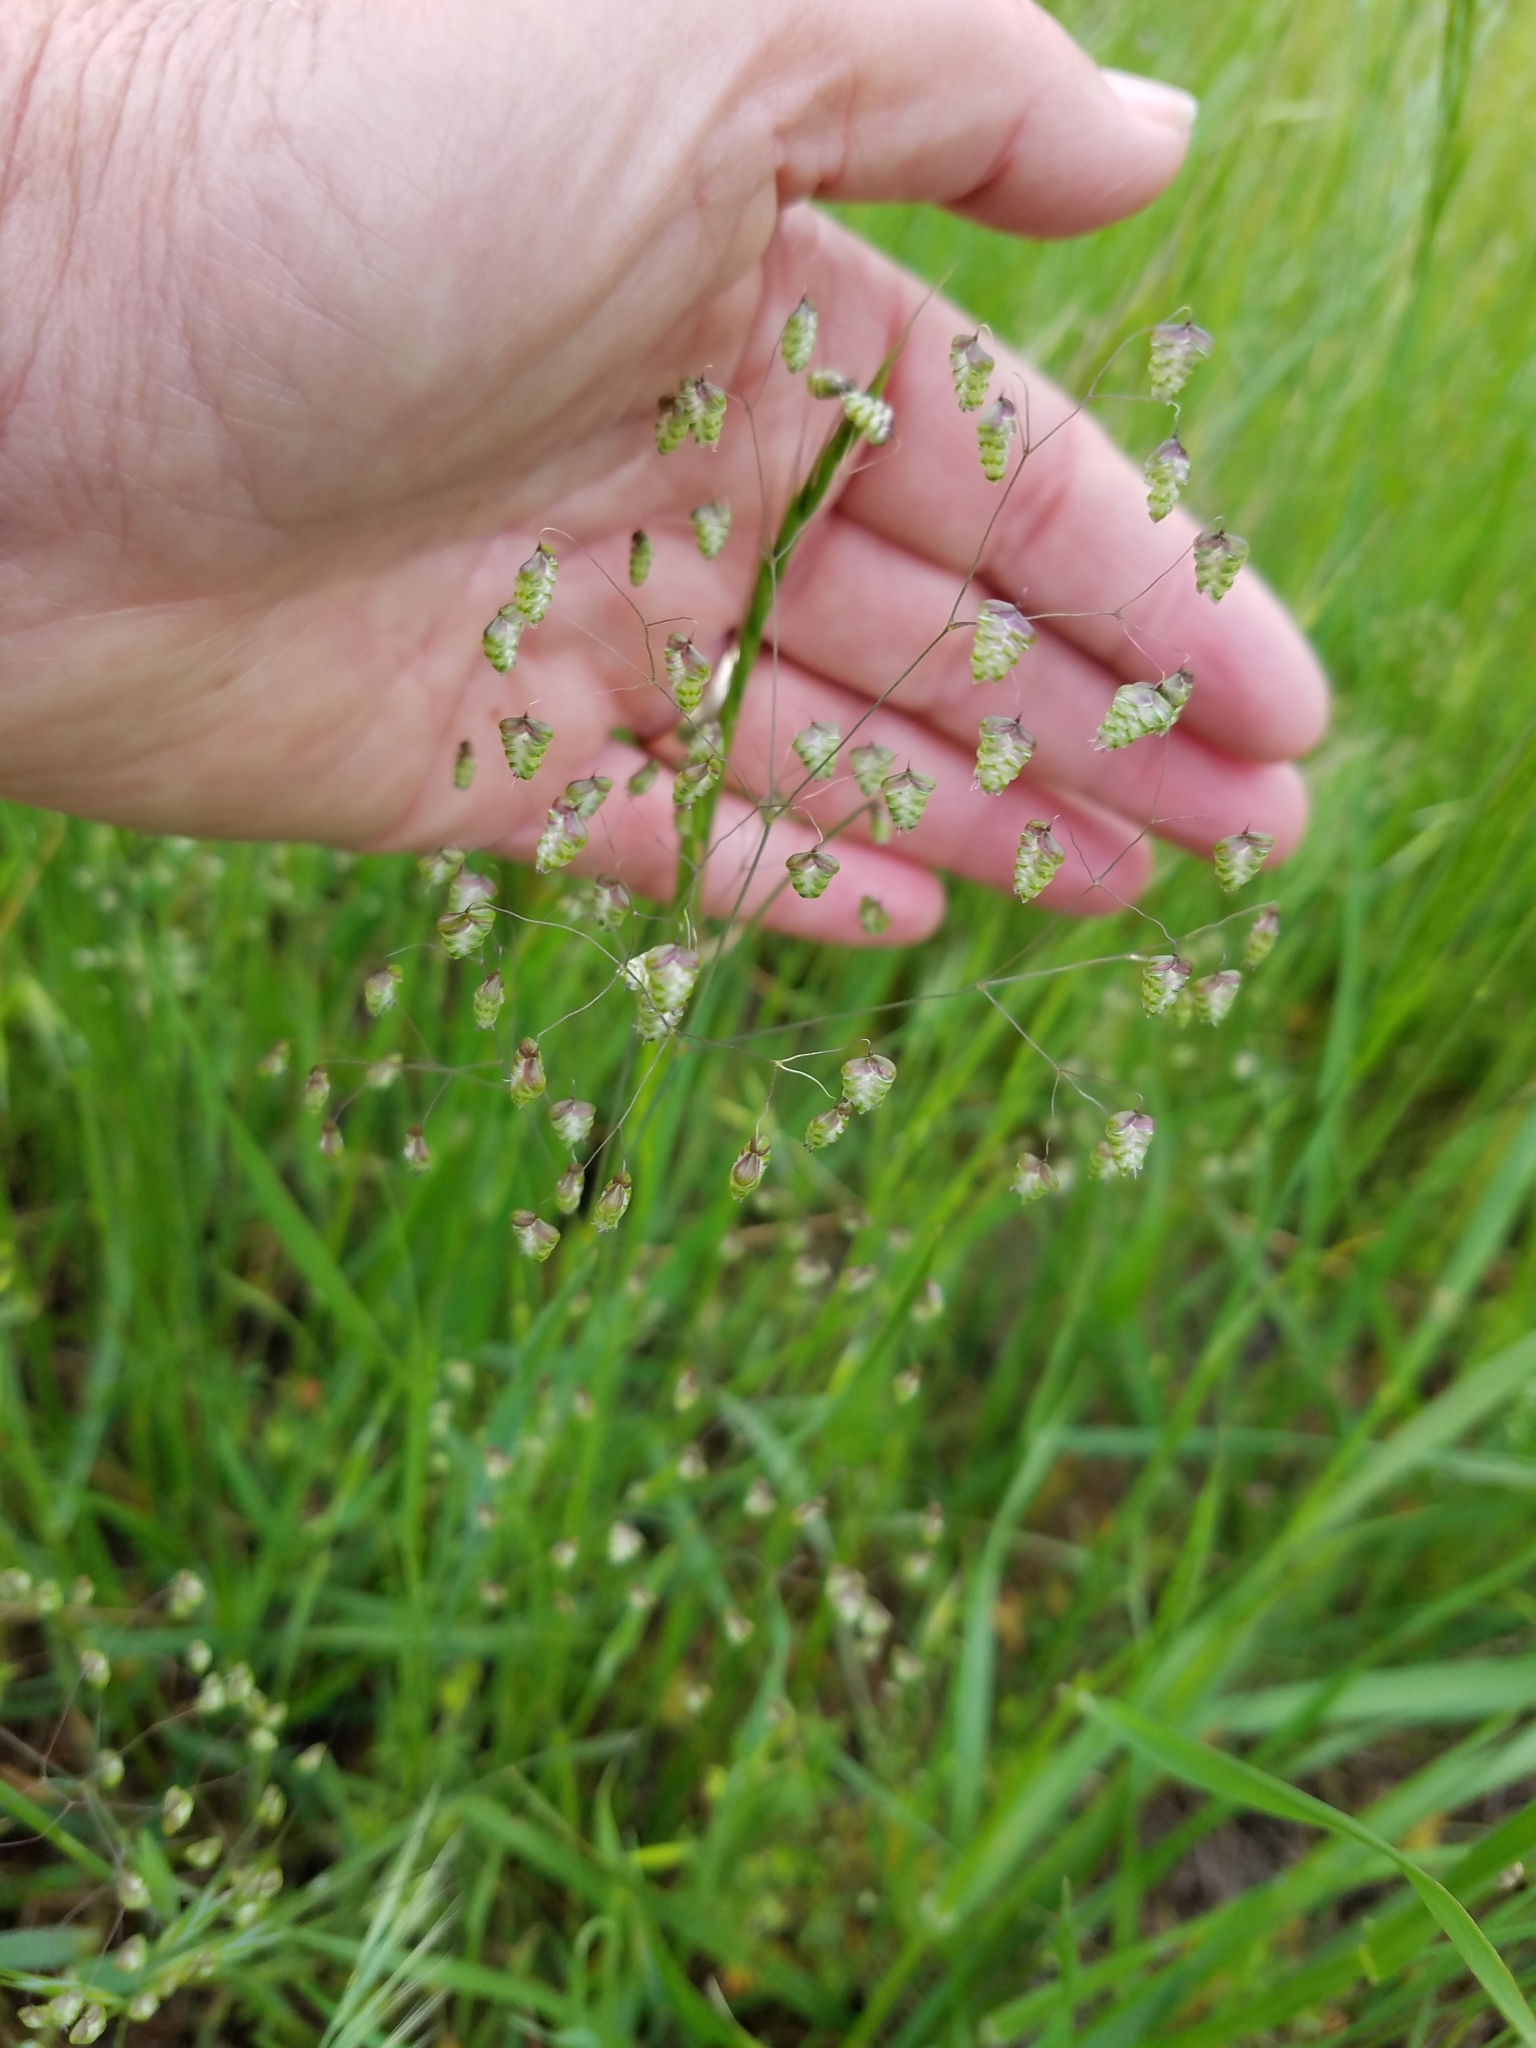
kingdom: Plantae
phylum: Tracheophyta
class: Liliopsida
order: Poales
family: Poaceae
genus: Briza
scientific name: Briza minor
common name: Lesser quaking-grass
